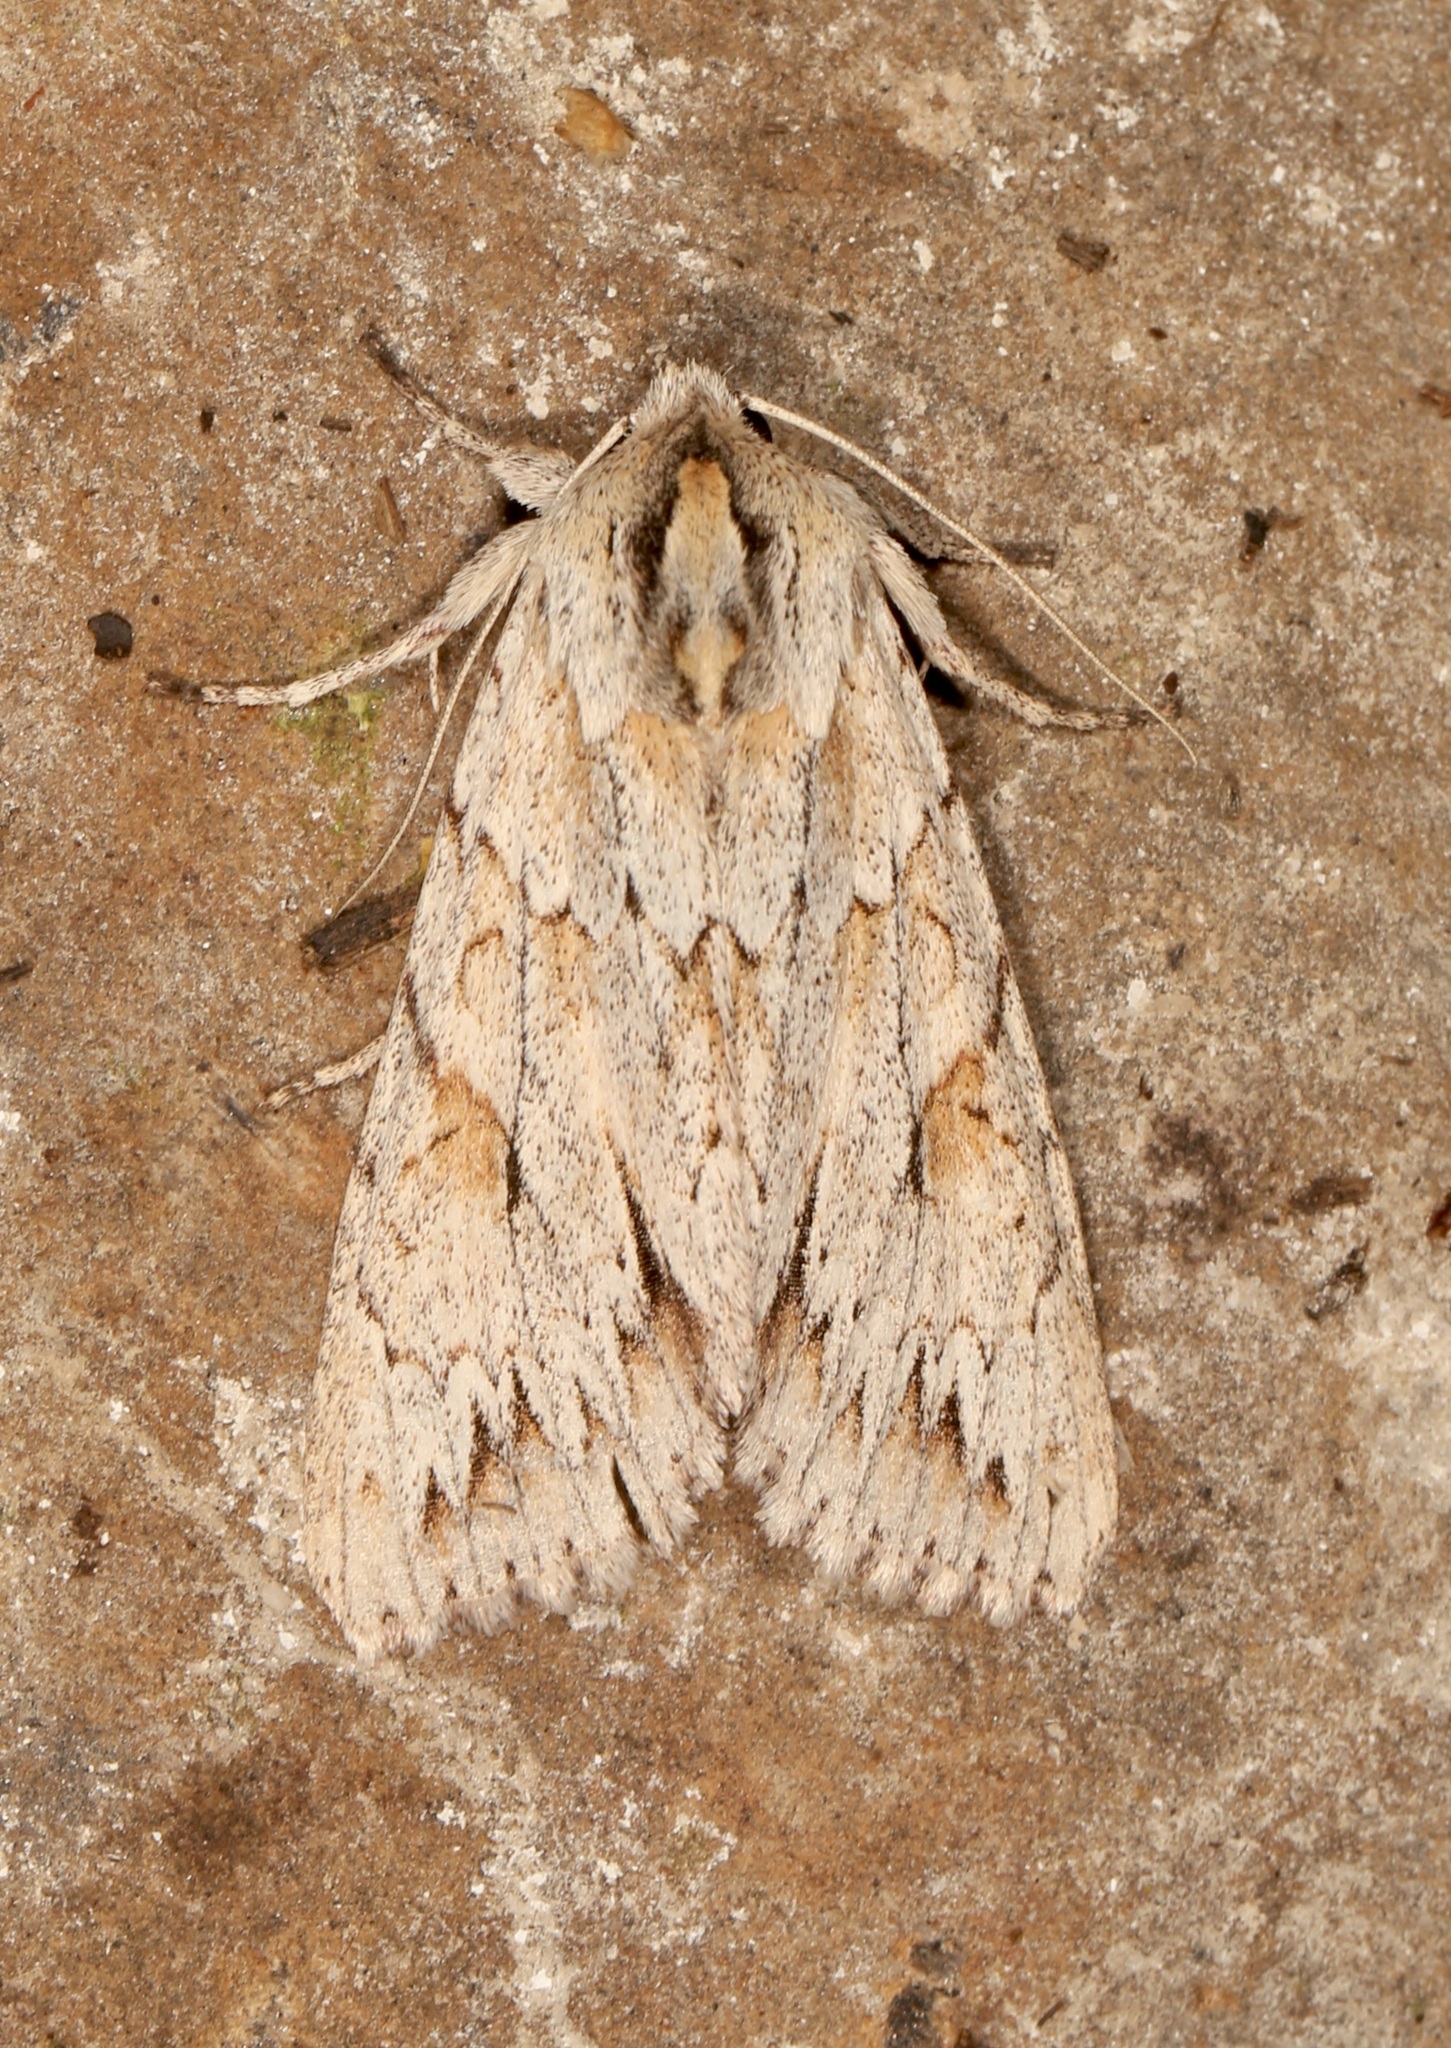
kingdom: Animalia
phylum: Arthropoda
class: Insecta
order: Lepidoptera
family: Noctuidae
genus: Andropolia
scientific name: Andropolia theodori
